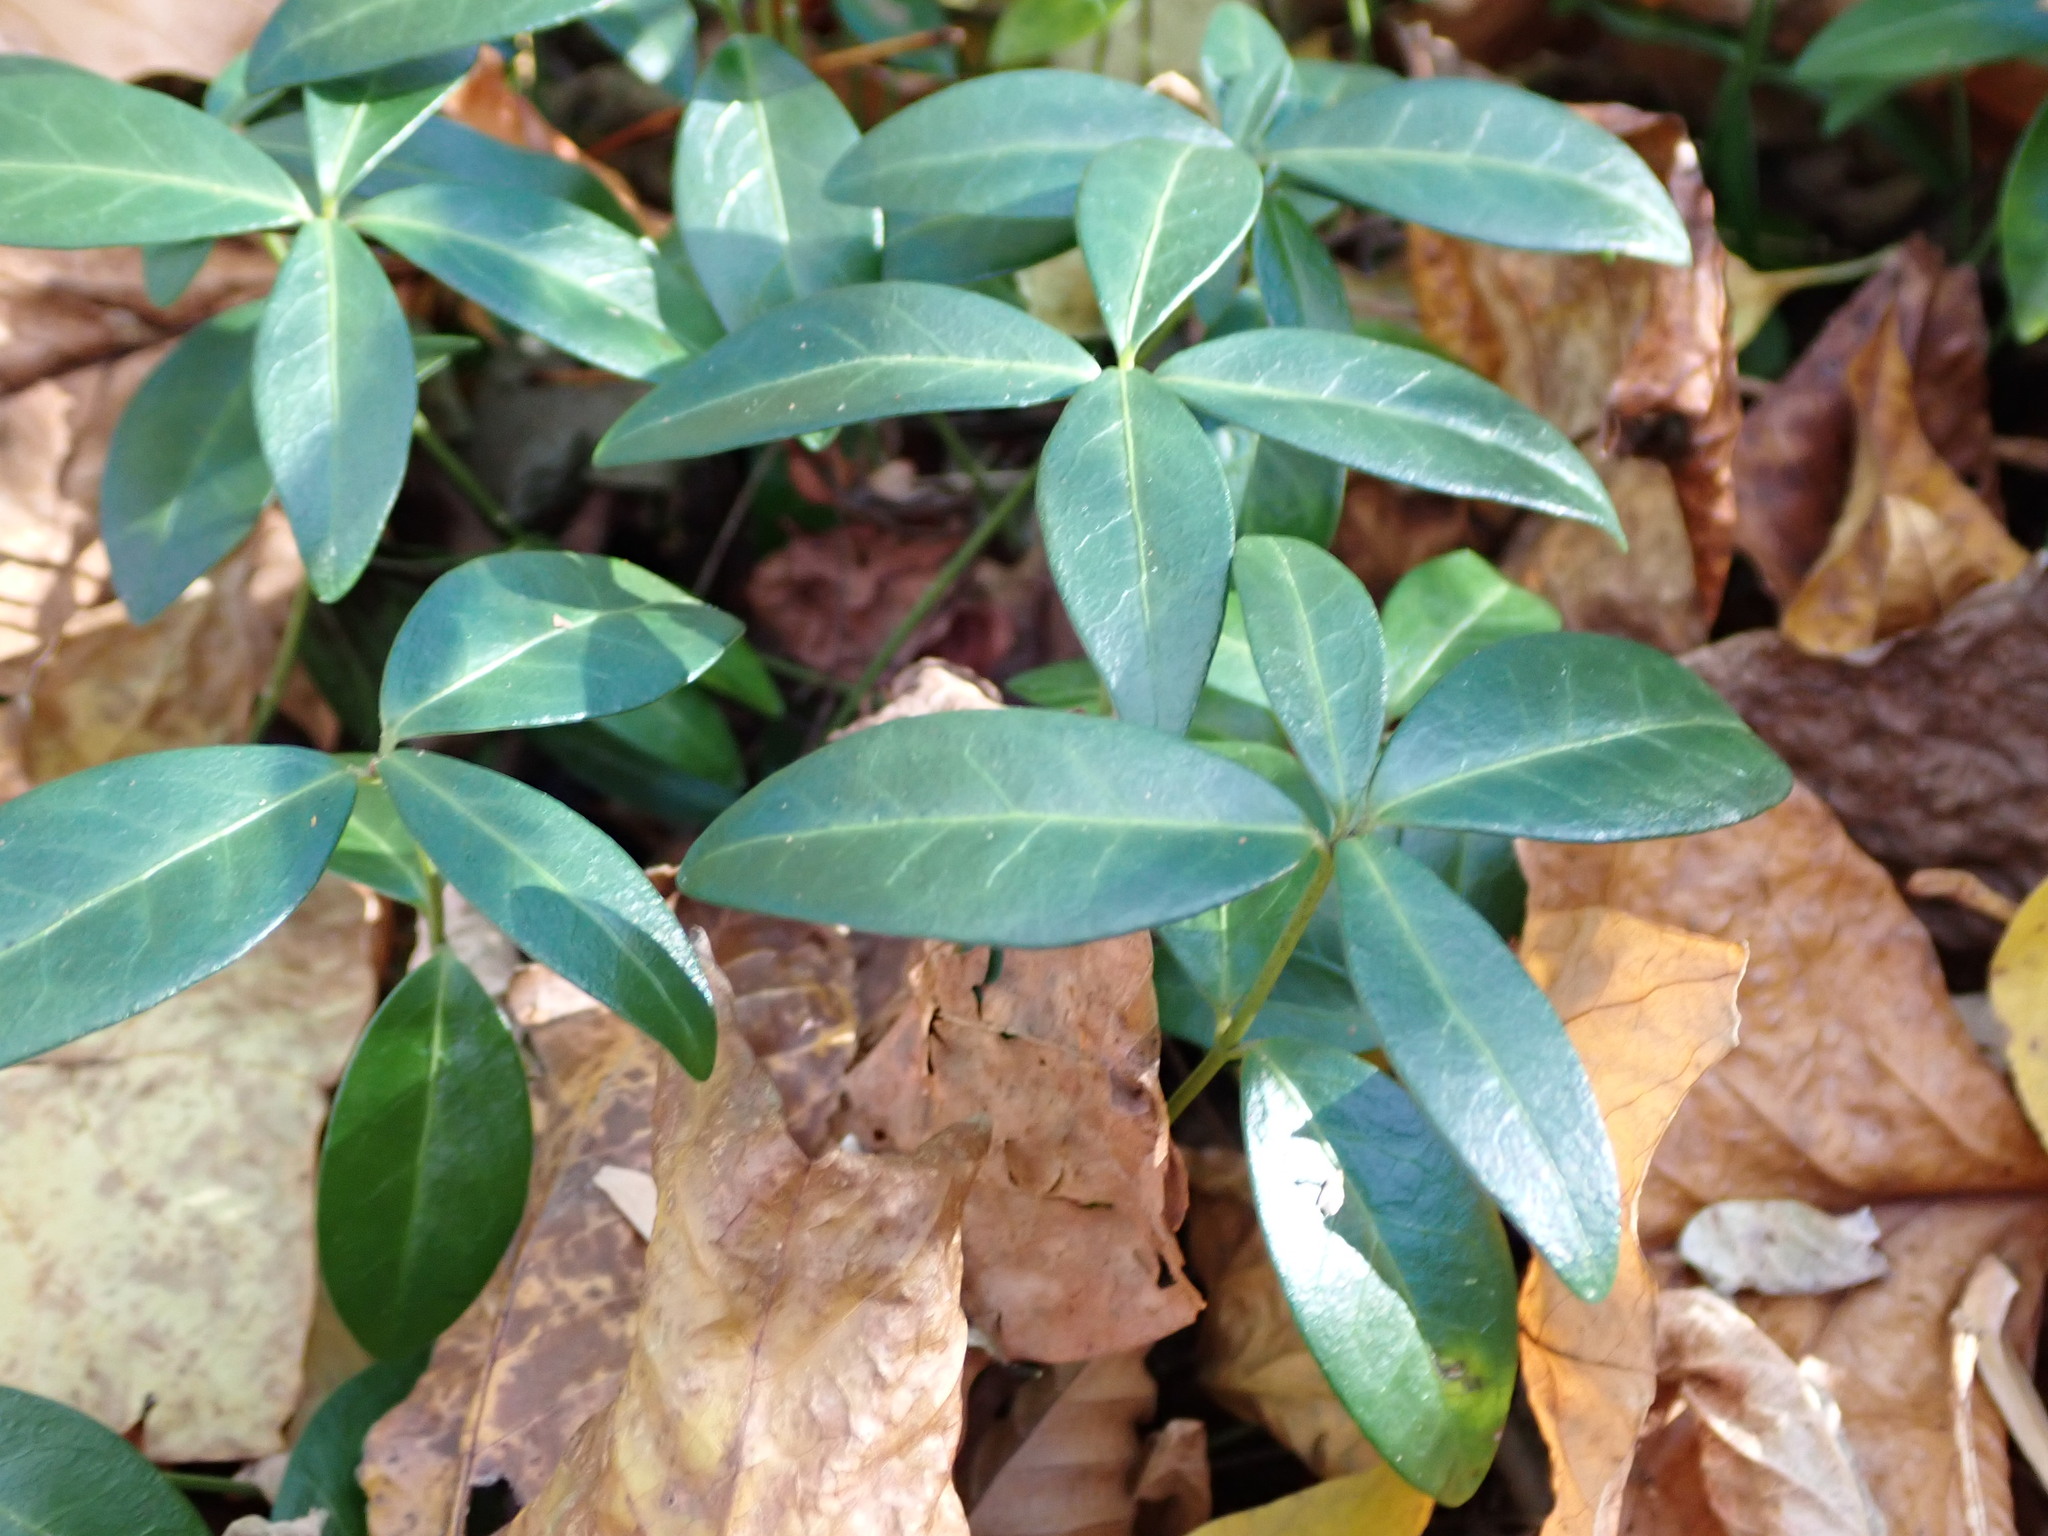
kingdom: Plantae
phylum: Tracheophyta
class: Magnoliopsida
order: Gentianales
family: Apocynaceae
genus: Vinca
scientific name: Vinca minor
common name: Lesser periwinkle
